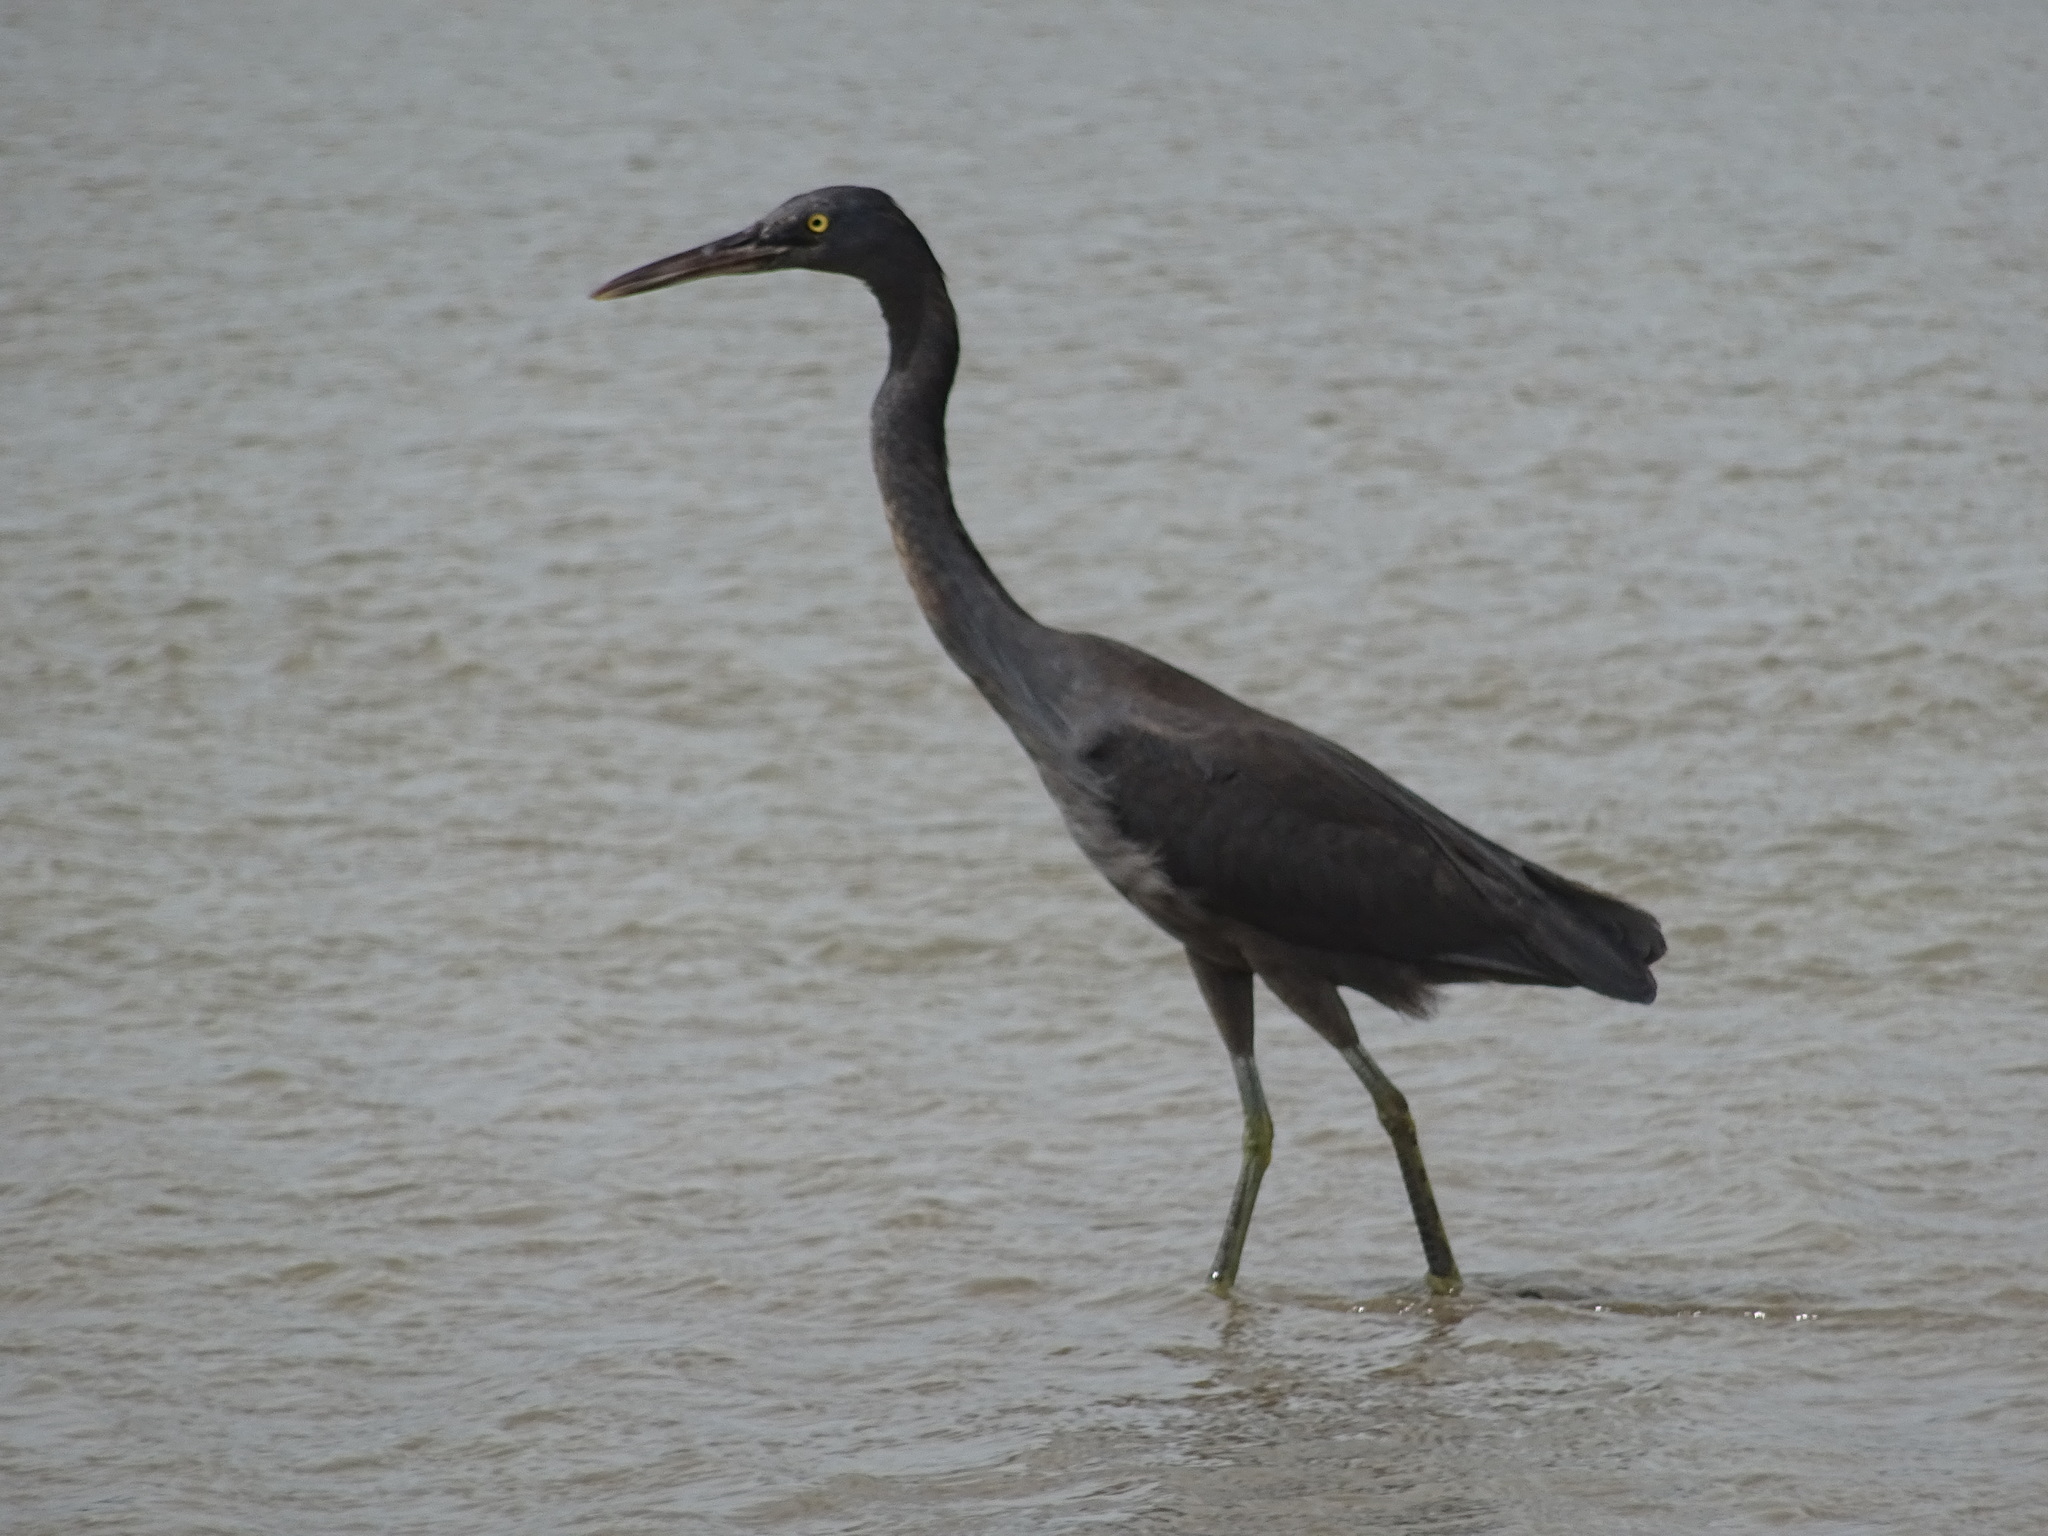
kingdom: Animalia
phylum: Chordata
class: Aves
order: Pelecaniformes
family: Ardeidae
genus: Egretta
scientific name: Egretta sacra
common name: Pacific reef heron
